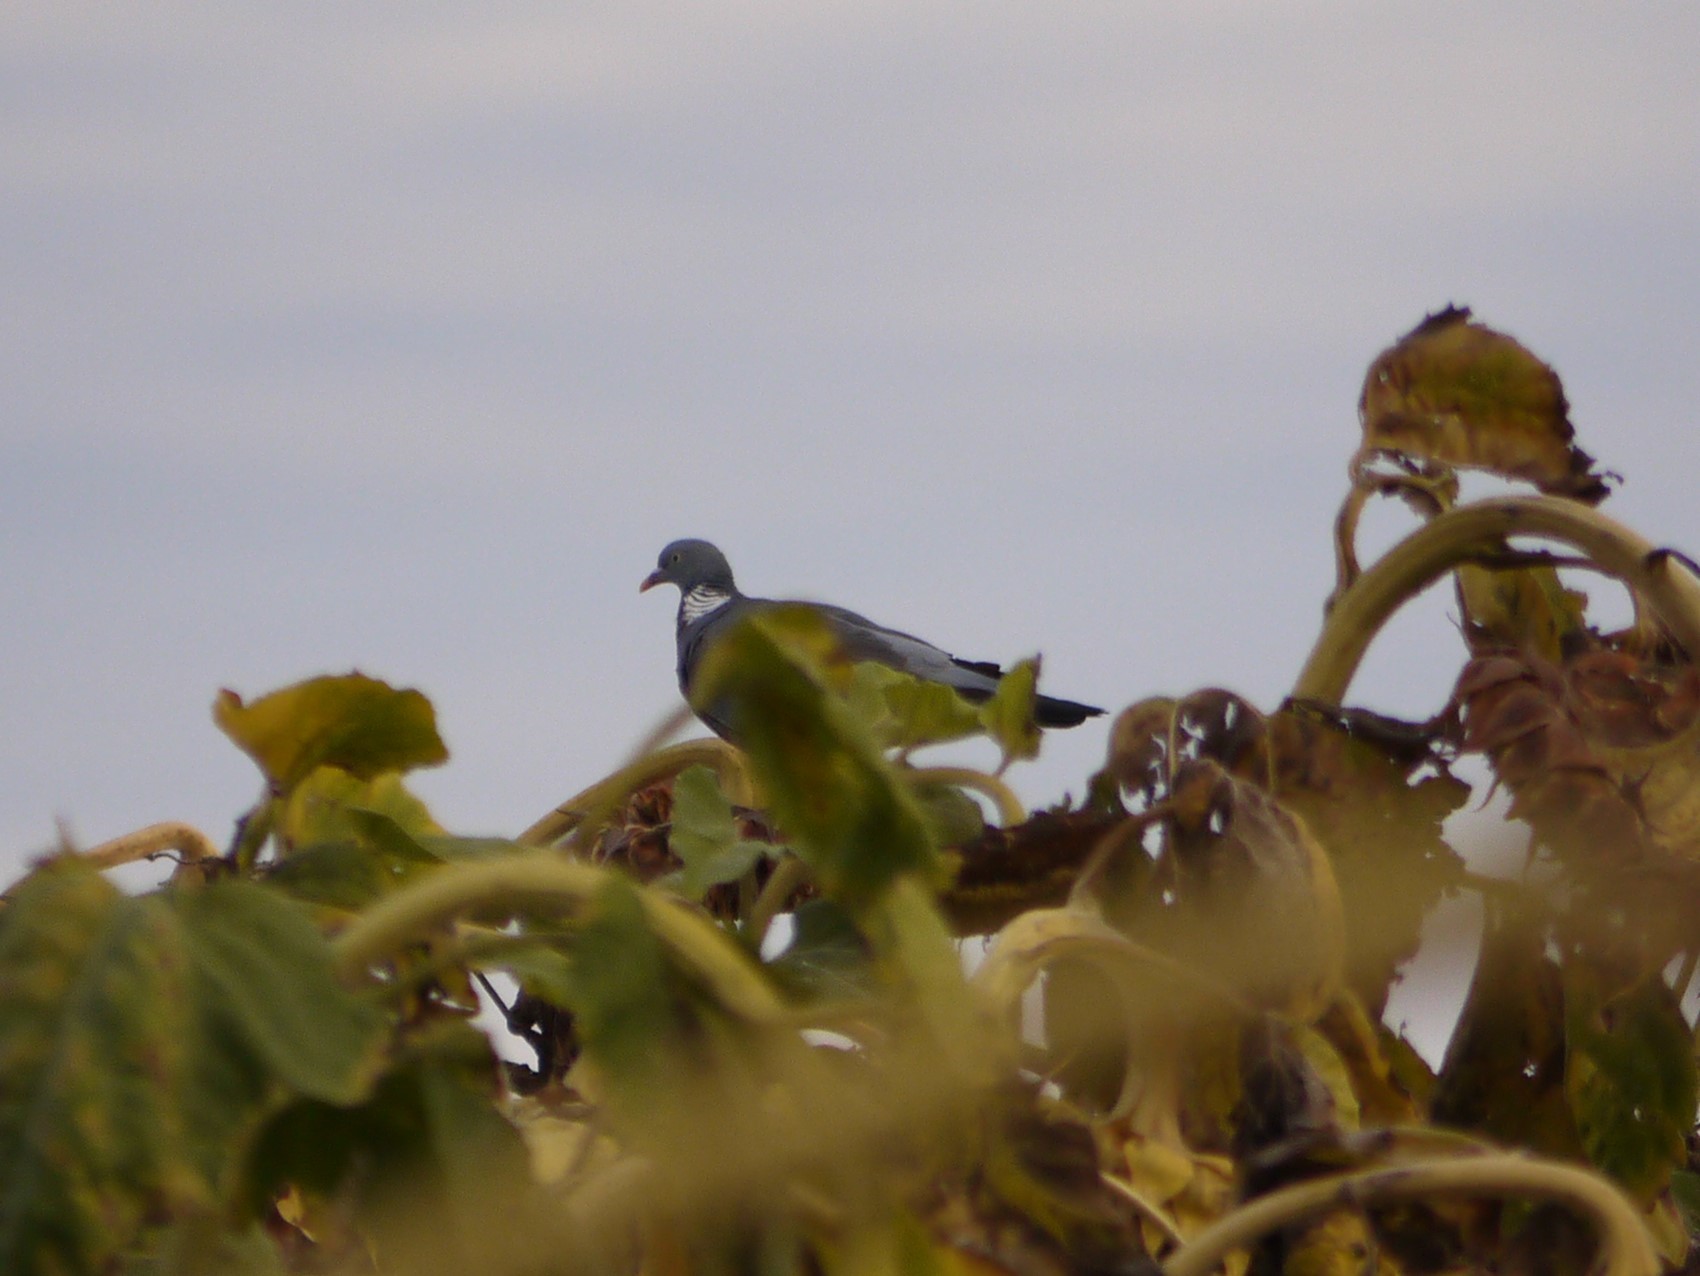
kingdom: Animalia
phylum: Chordata
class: Aves
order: Columbiformes
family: Columbidae
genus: Columba
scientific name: Columba palumbus
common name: Common wood pigeon
